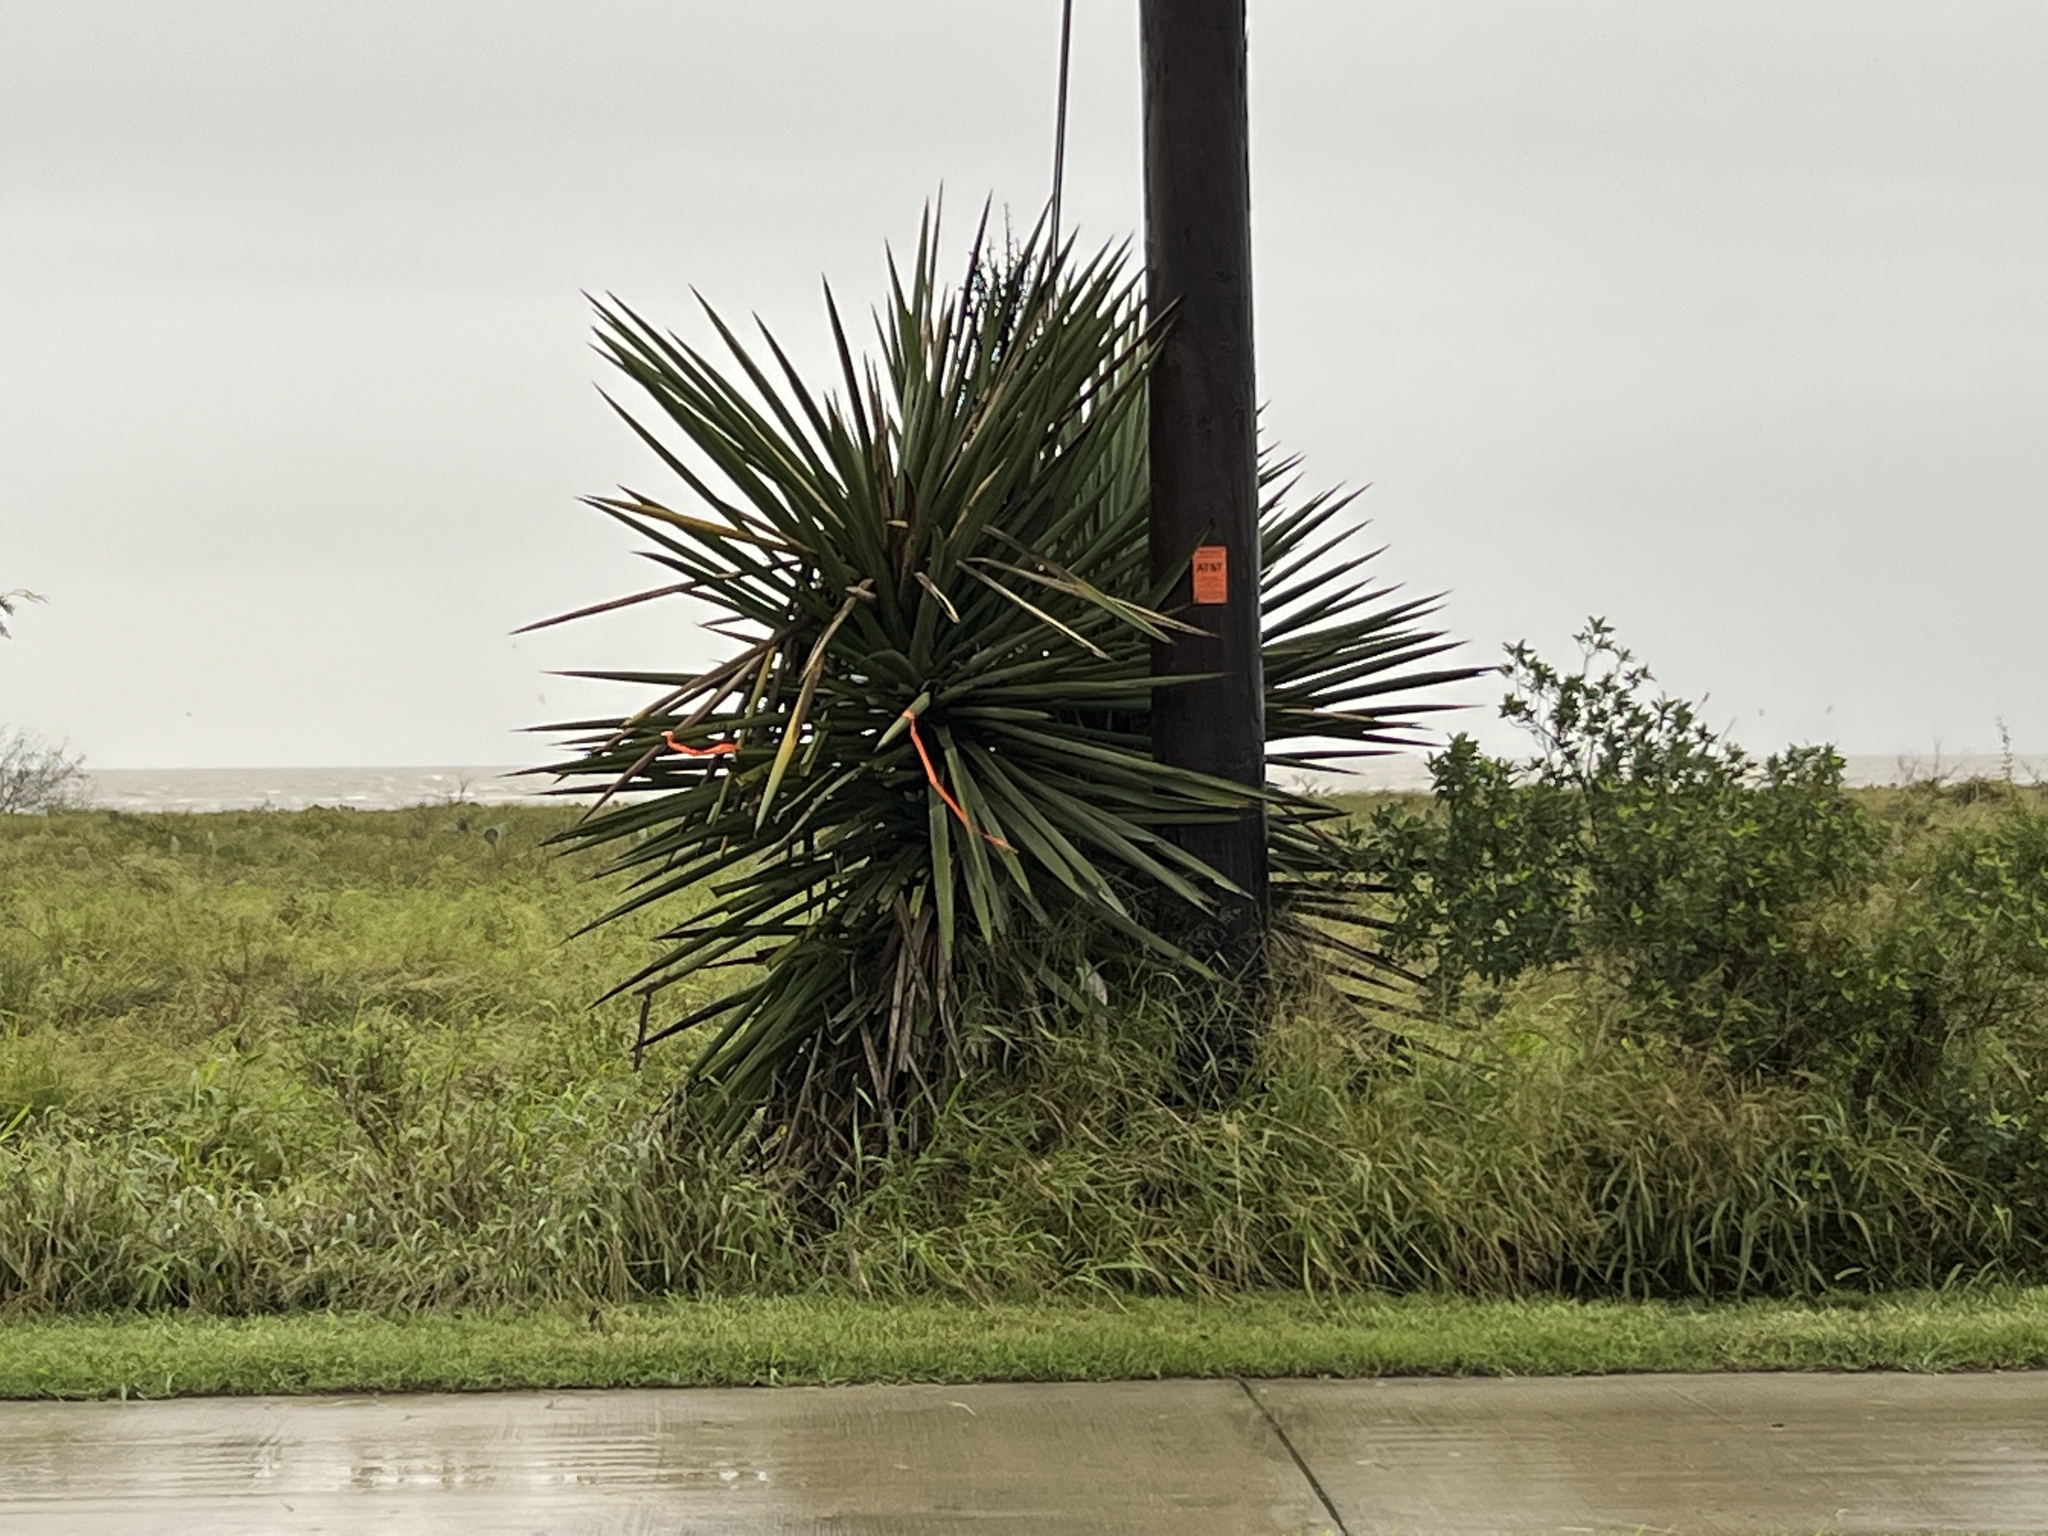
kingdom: Plantae
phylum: Tracheophyta
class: Liliopsida
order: Asparagales
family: Asparagaceae
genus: Yucca
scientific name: Yucca treculiana
